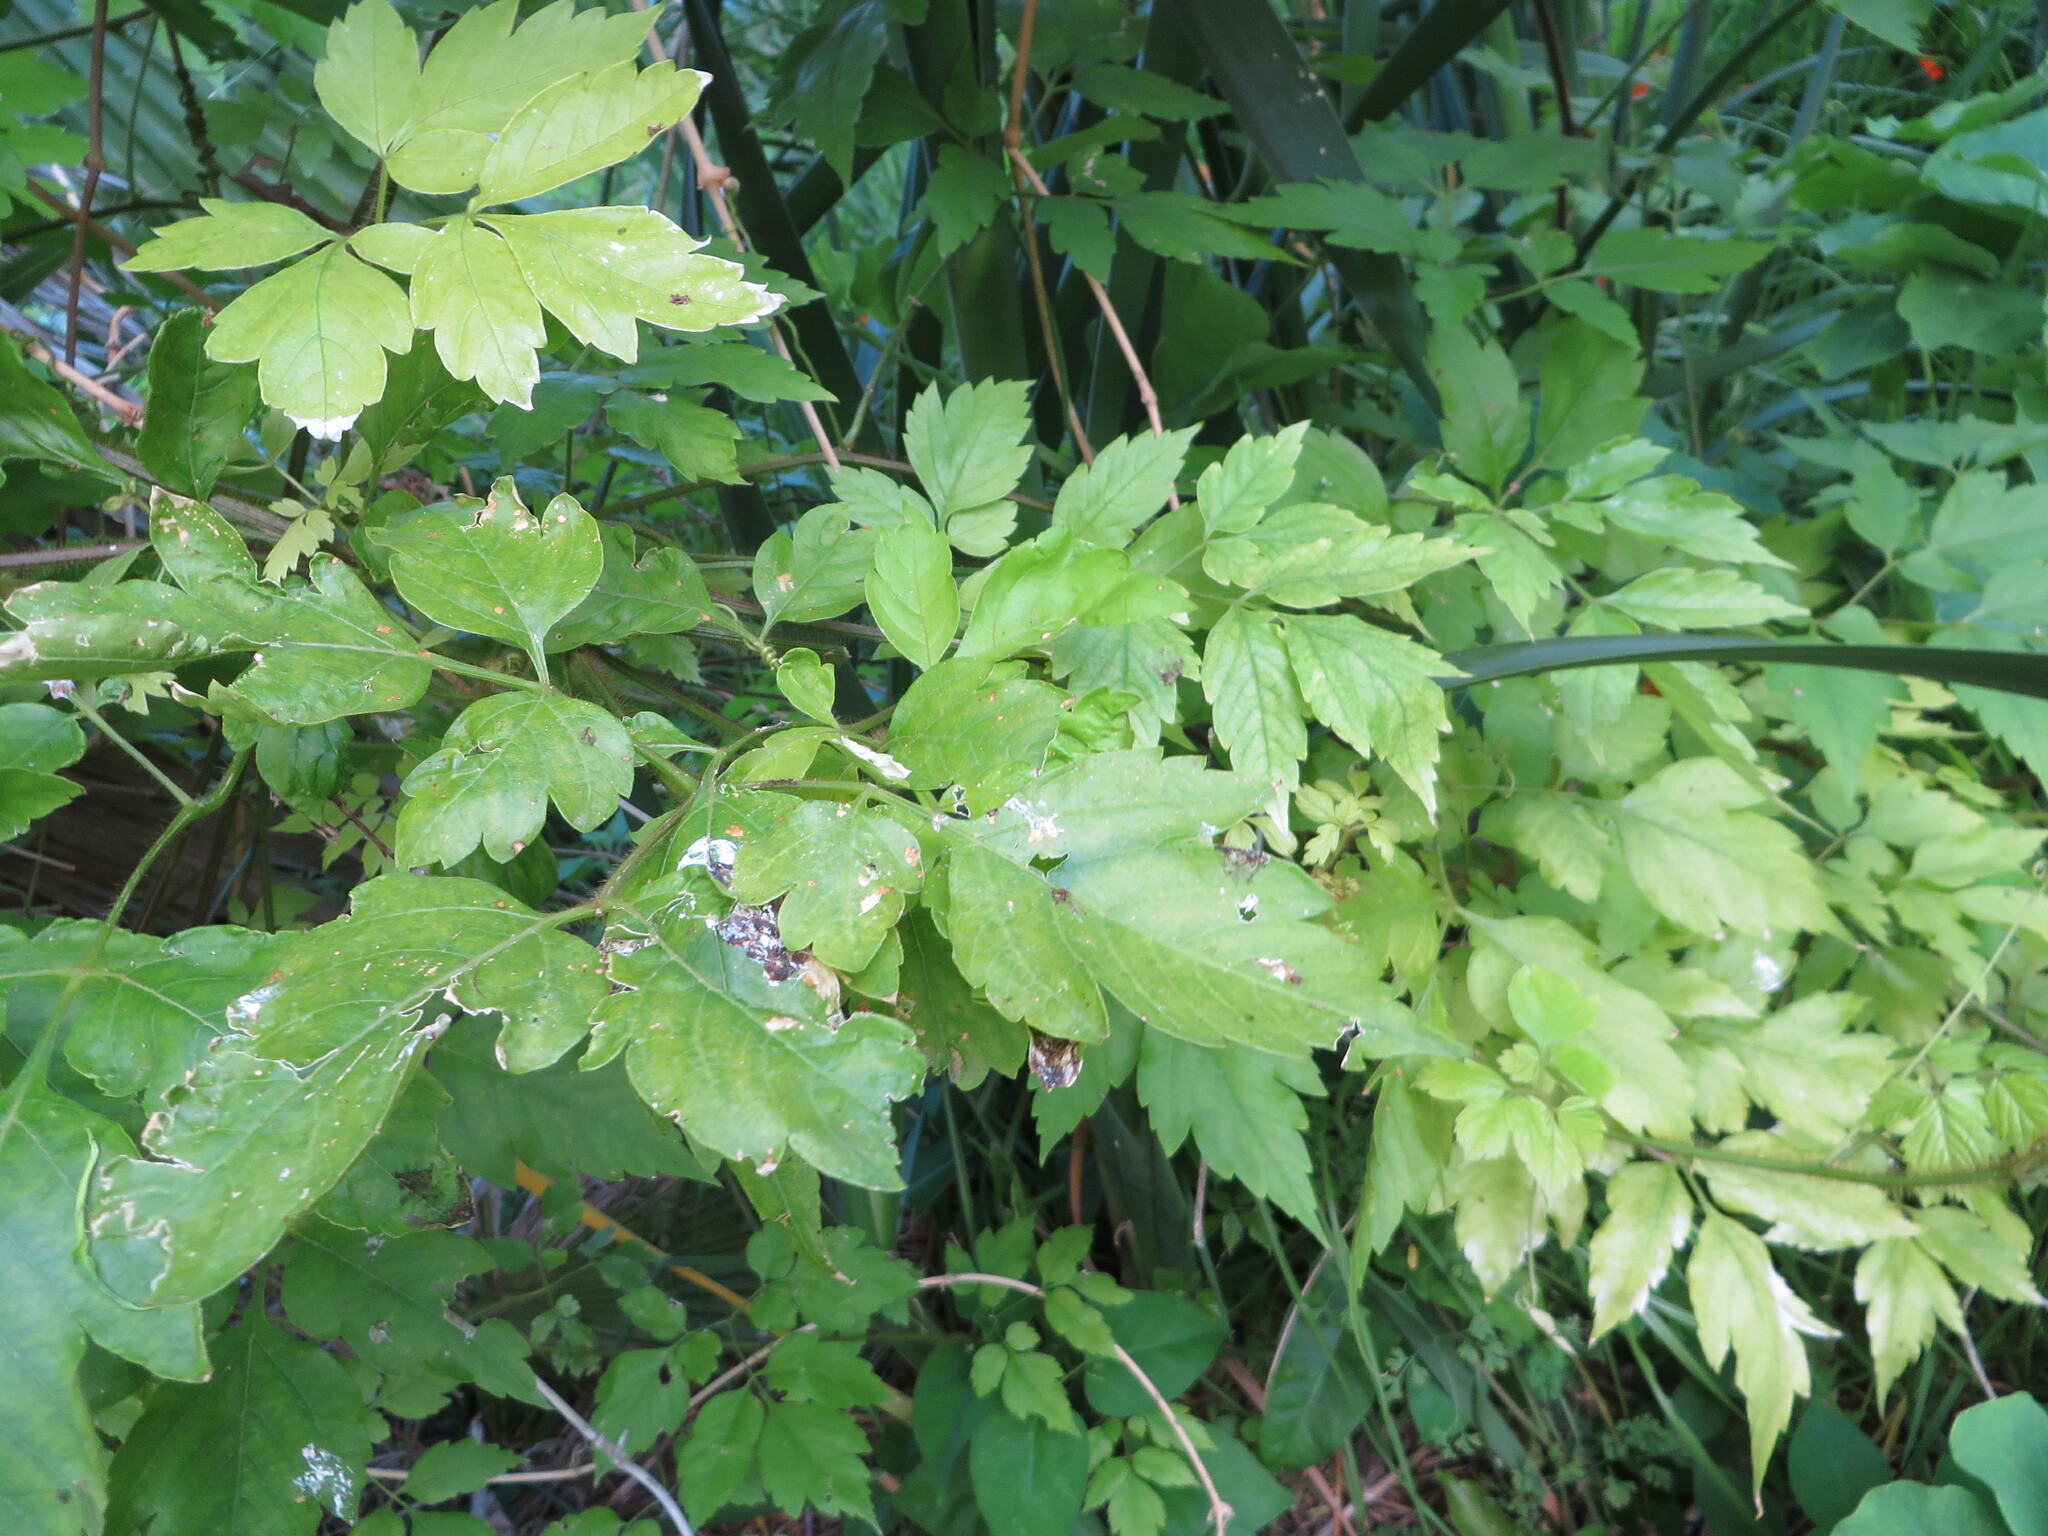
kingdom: Plantae
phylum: Tracheophyta
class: Magnoliopsida
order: Sapindales
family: Sapindaceae
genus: Cardiospermum
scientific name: Cardiospermum grandiflorum
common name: Balloon vine
